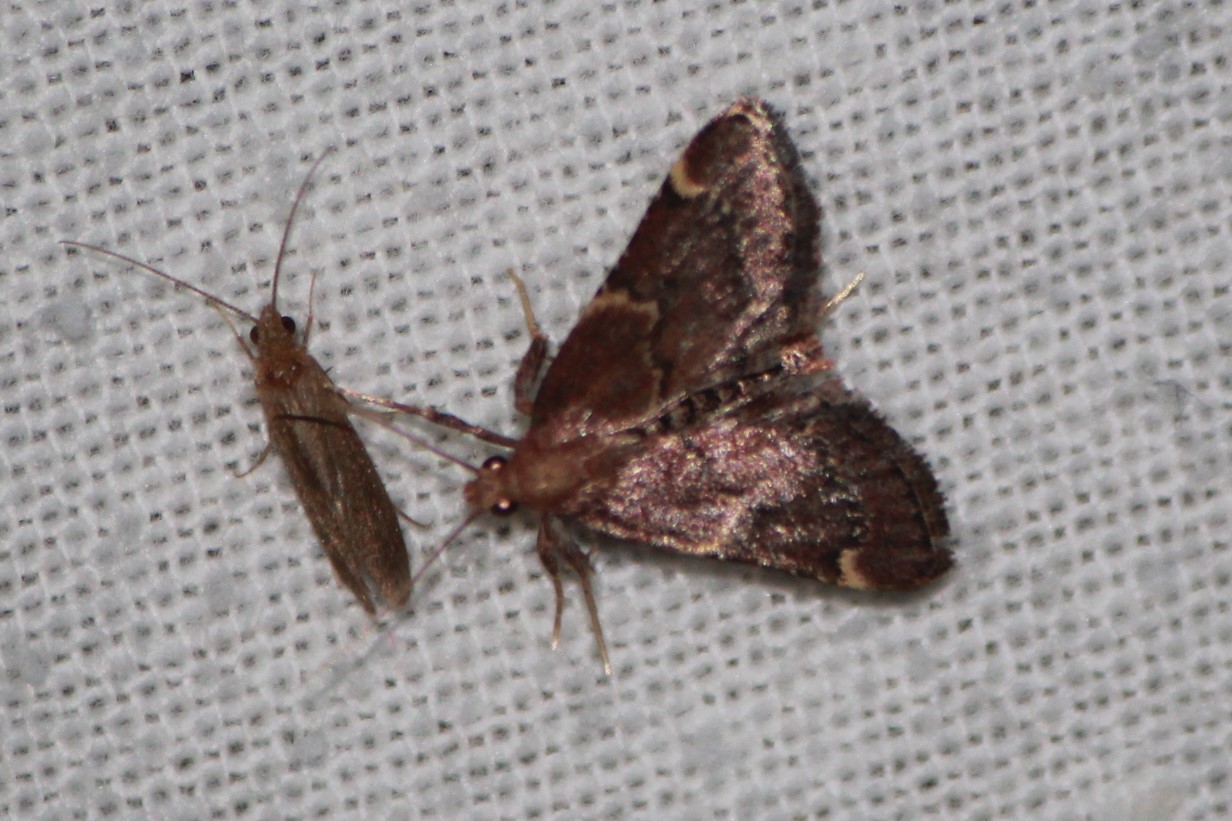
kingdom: Animalia
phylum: Arthropoda
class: Insecta
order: Lepidoptera
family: Pyralidae
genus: Hypsopygia
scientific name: Hypsopygia intermedialis
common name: Red-shawled moth
